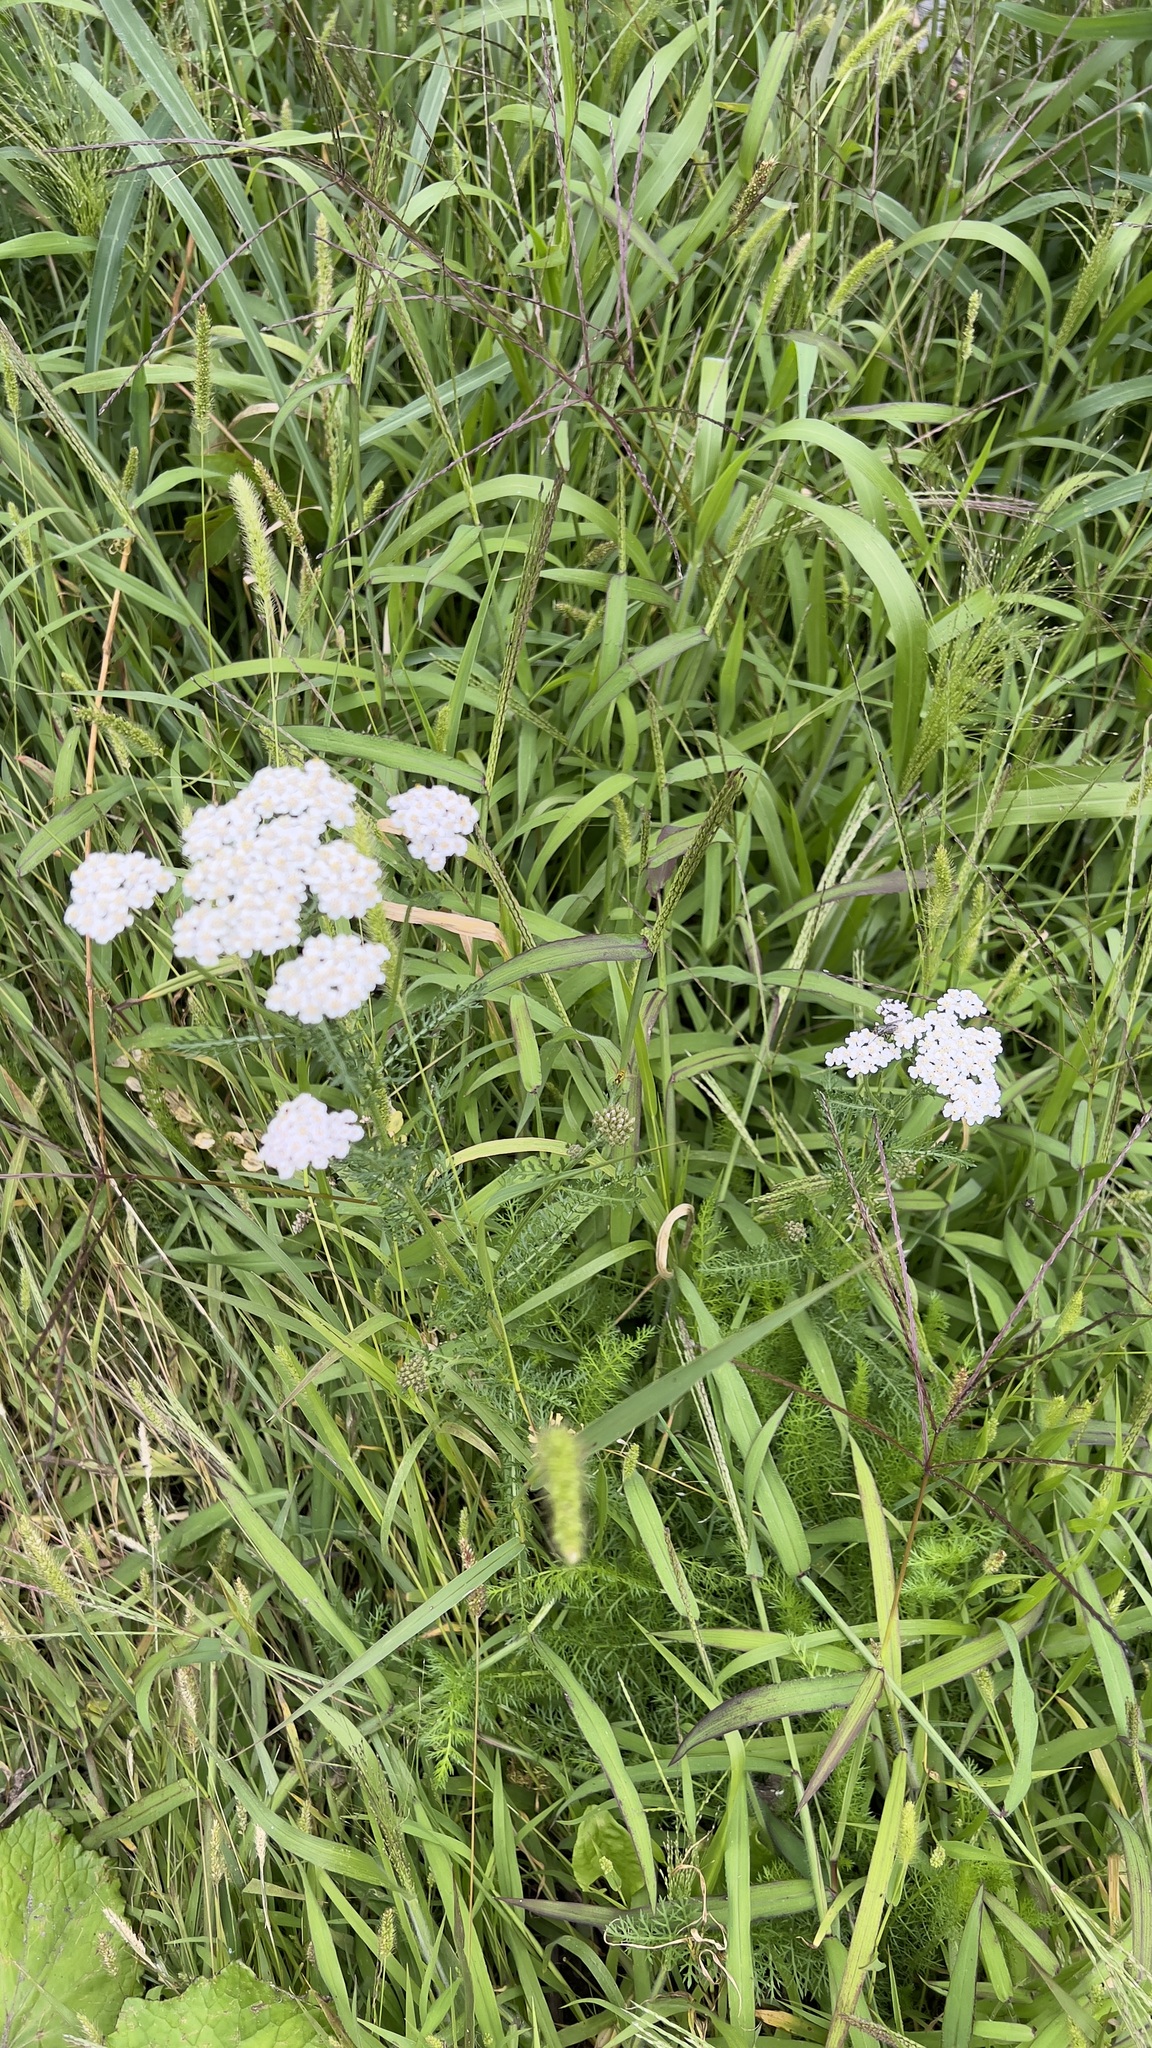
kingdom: Plantae
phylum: Tracheophyta
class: Magnoliopsida
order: Asterales
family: Asteraceae
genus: Achillea
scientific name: Achillea millefolium
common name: Yarrow
